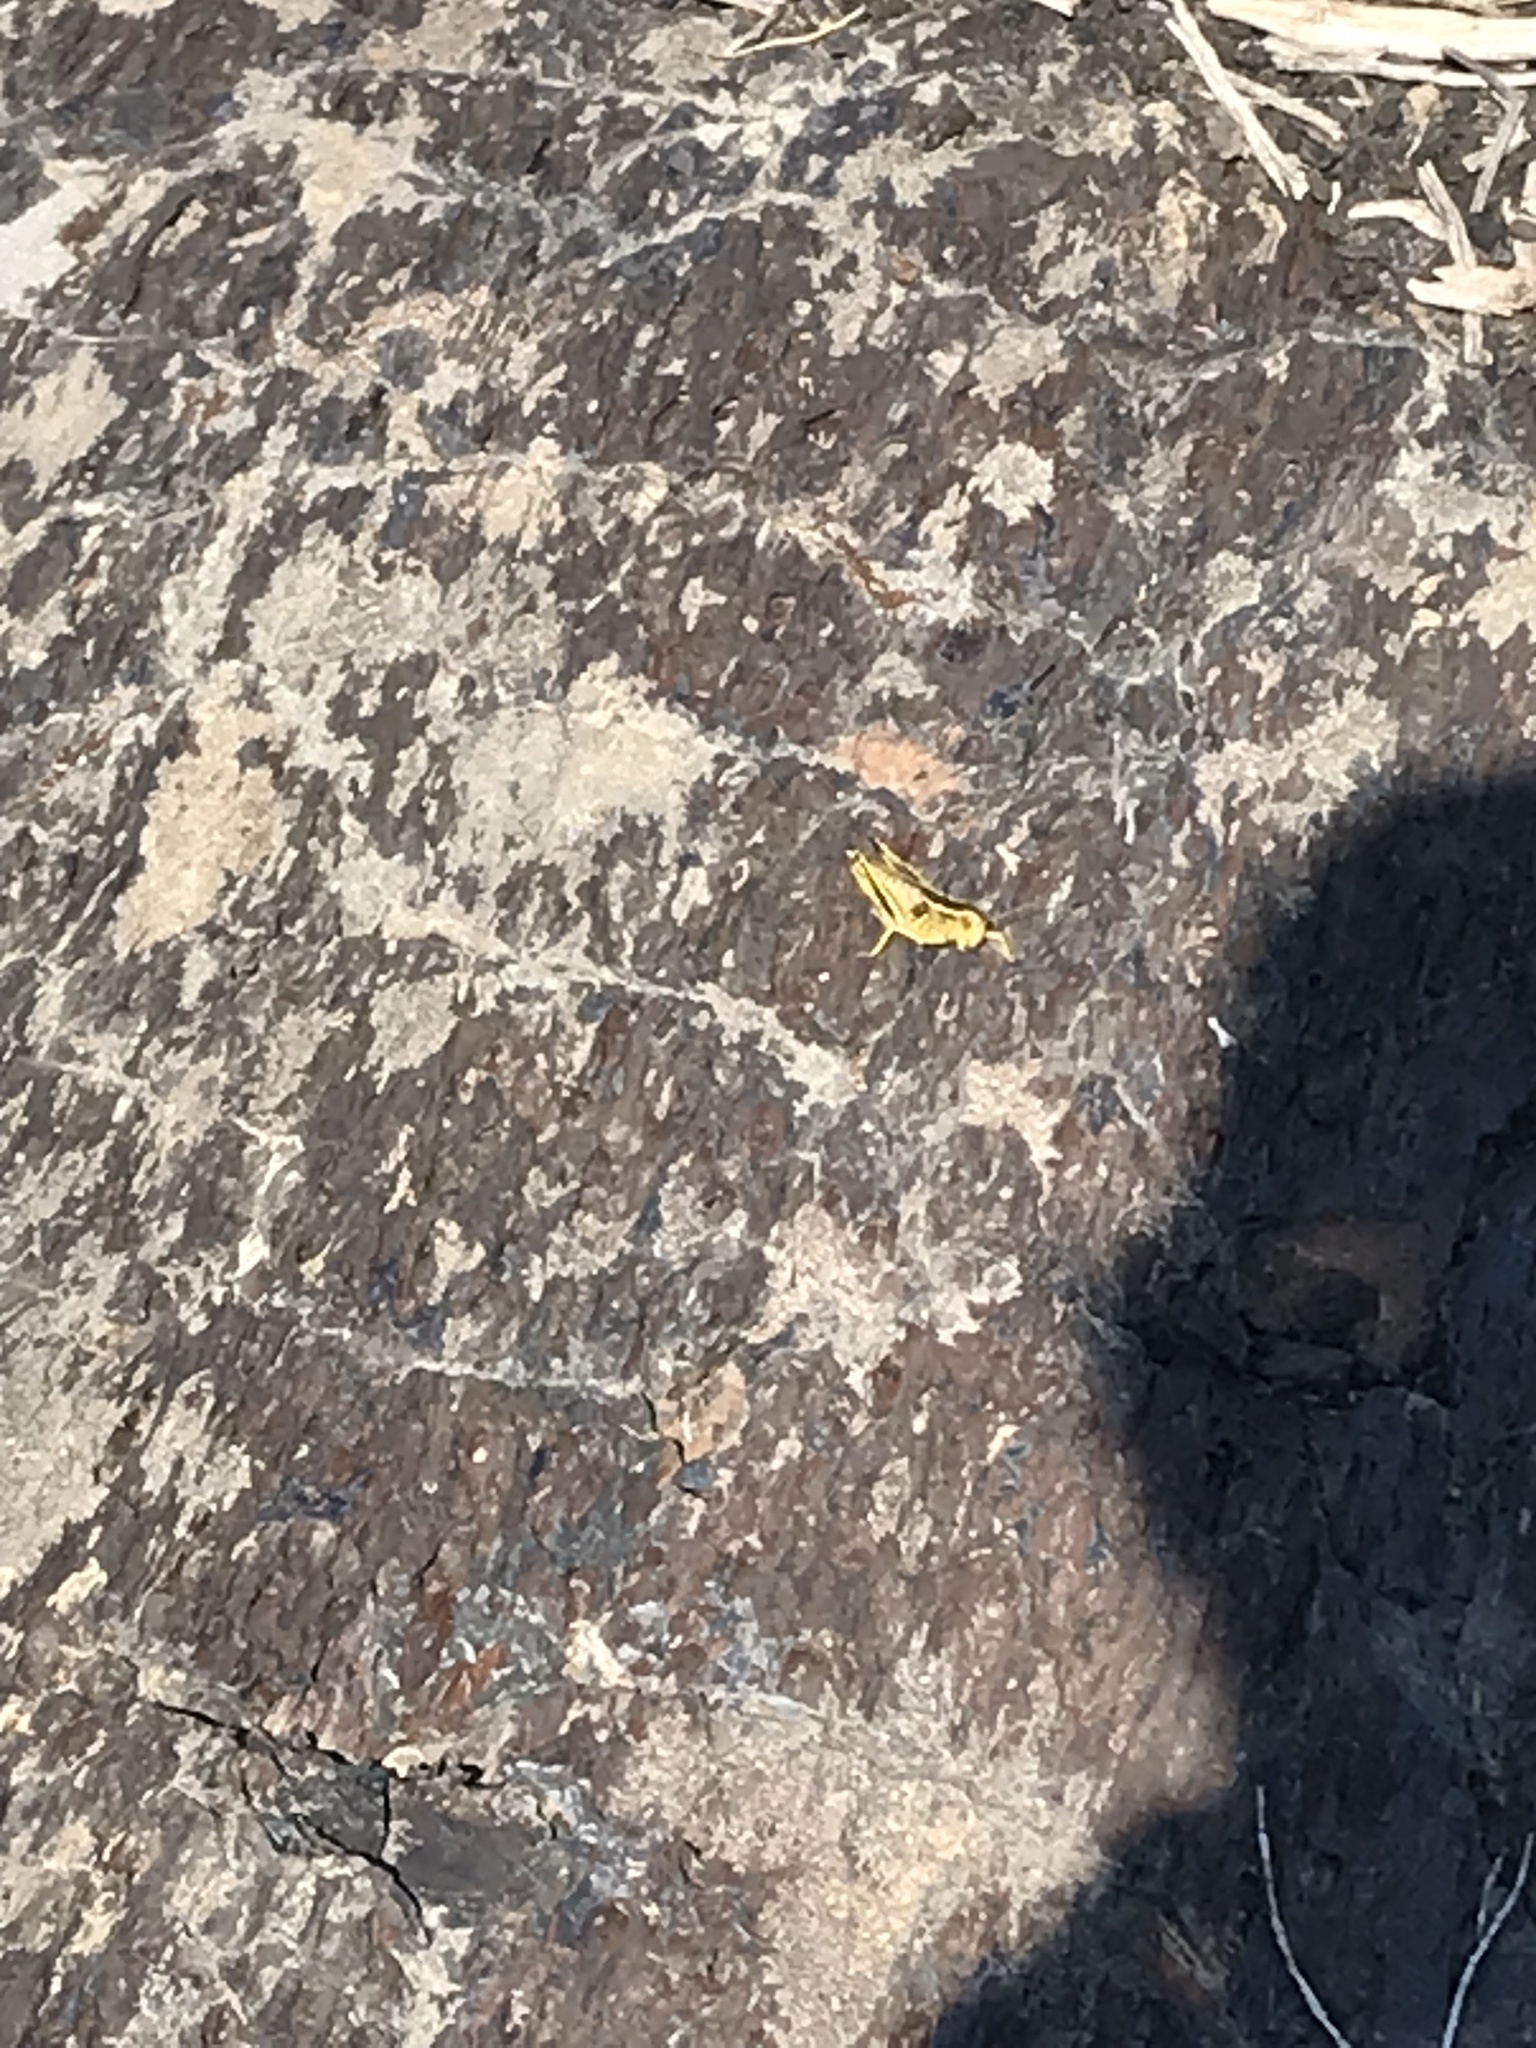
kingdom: Animalia
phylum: Arthropoda
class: Insecta
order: Orthoptera
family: Acrididae
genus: Melanoplus
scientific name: Melanoplus bivittatus
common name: Two-striped grasshopper
